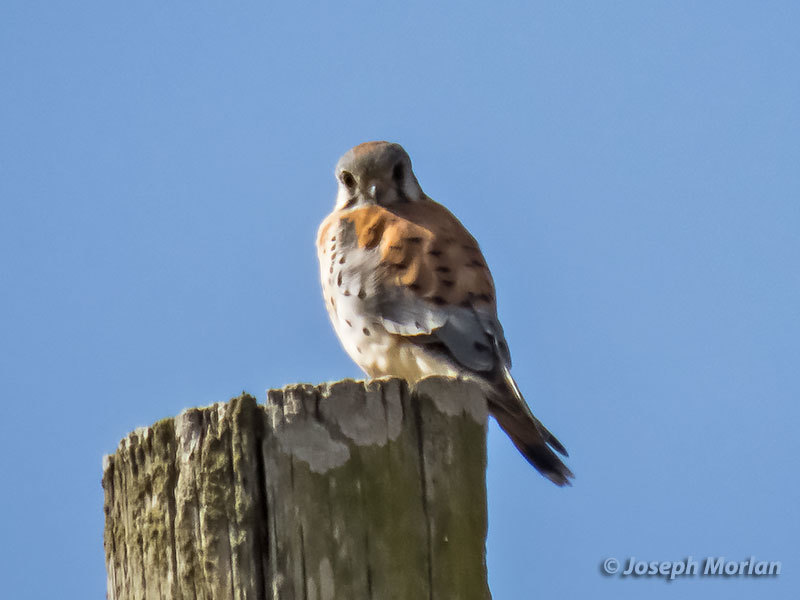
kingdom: Animalia
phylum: Chordata
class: Aves
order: Falconiformes
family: Falconidae
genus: Falco
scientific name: Falco sparverius
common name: American kestrel
